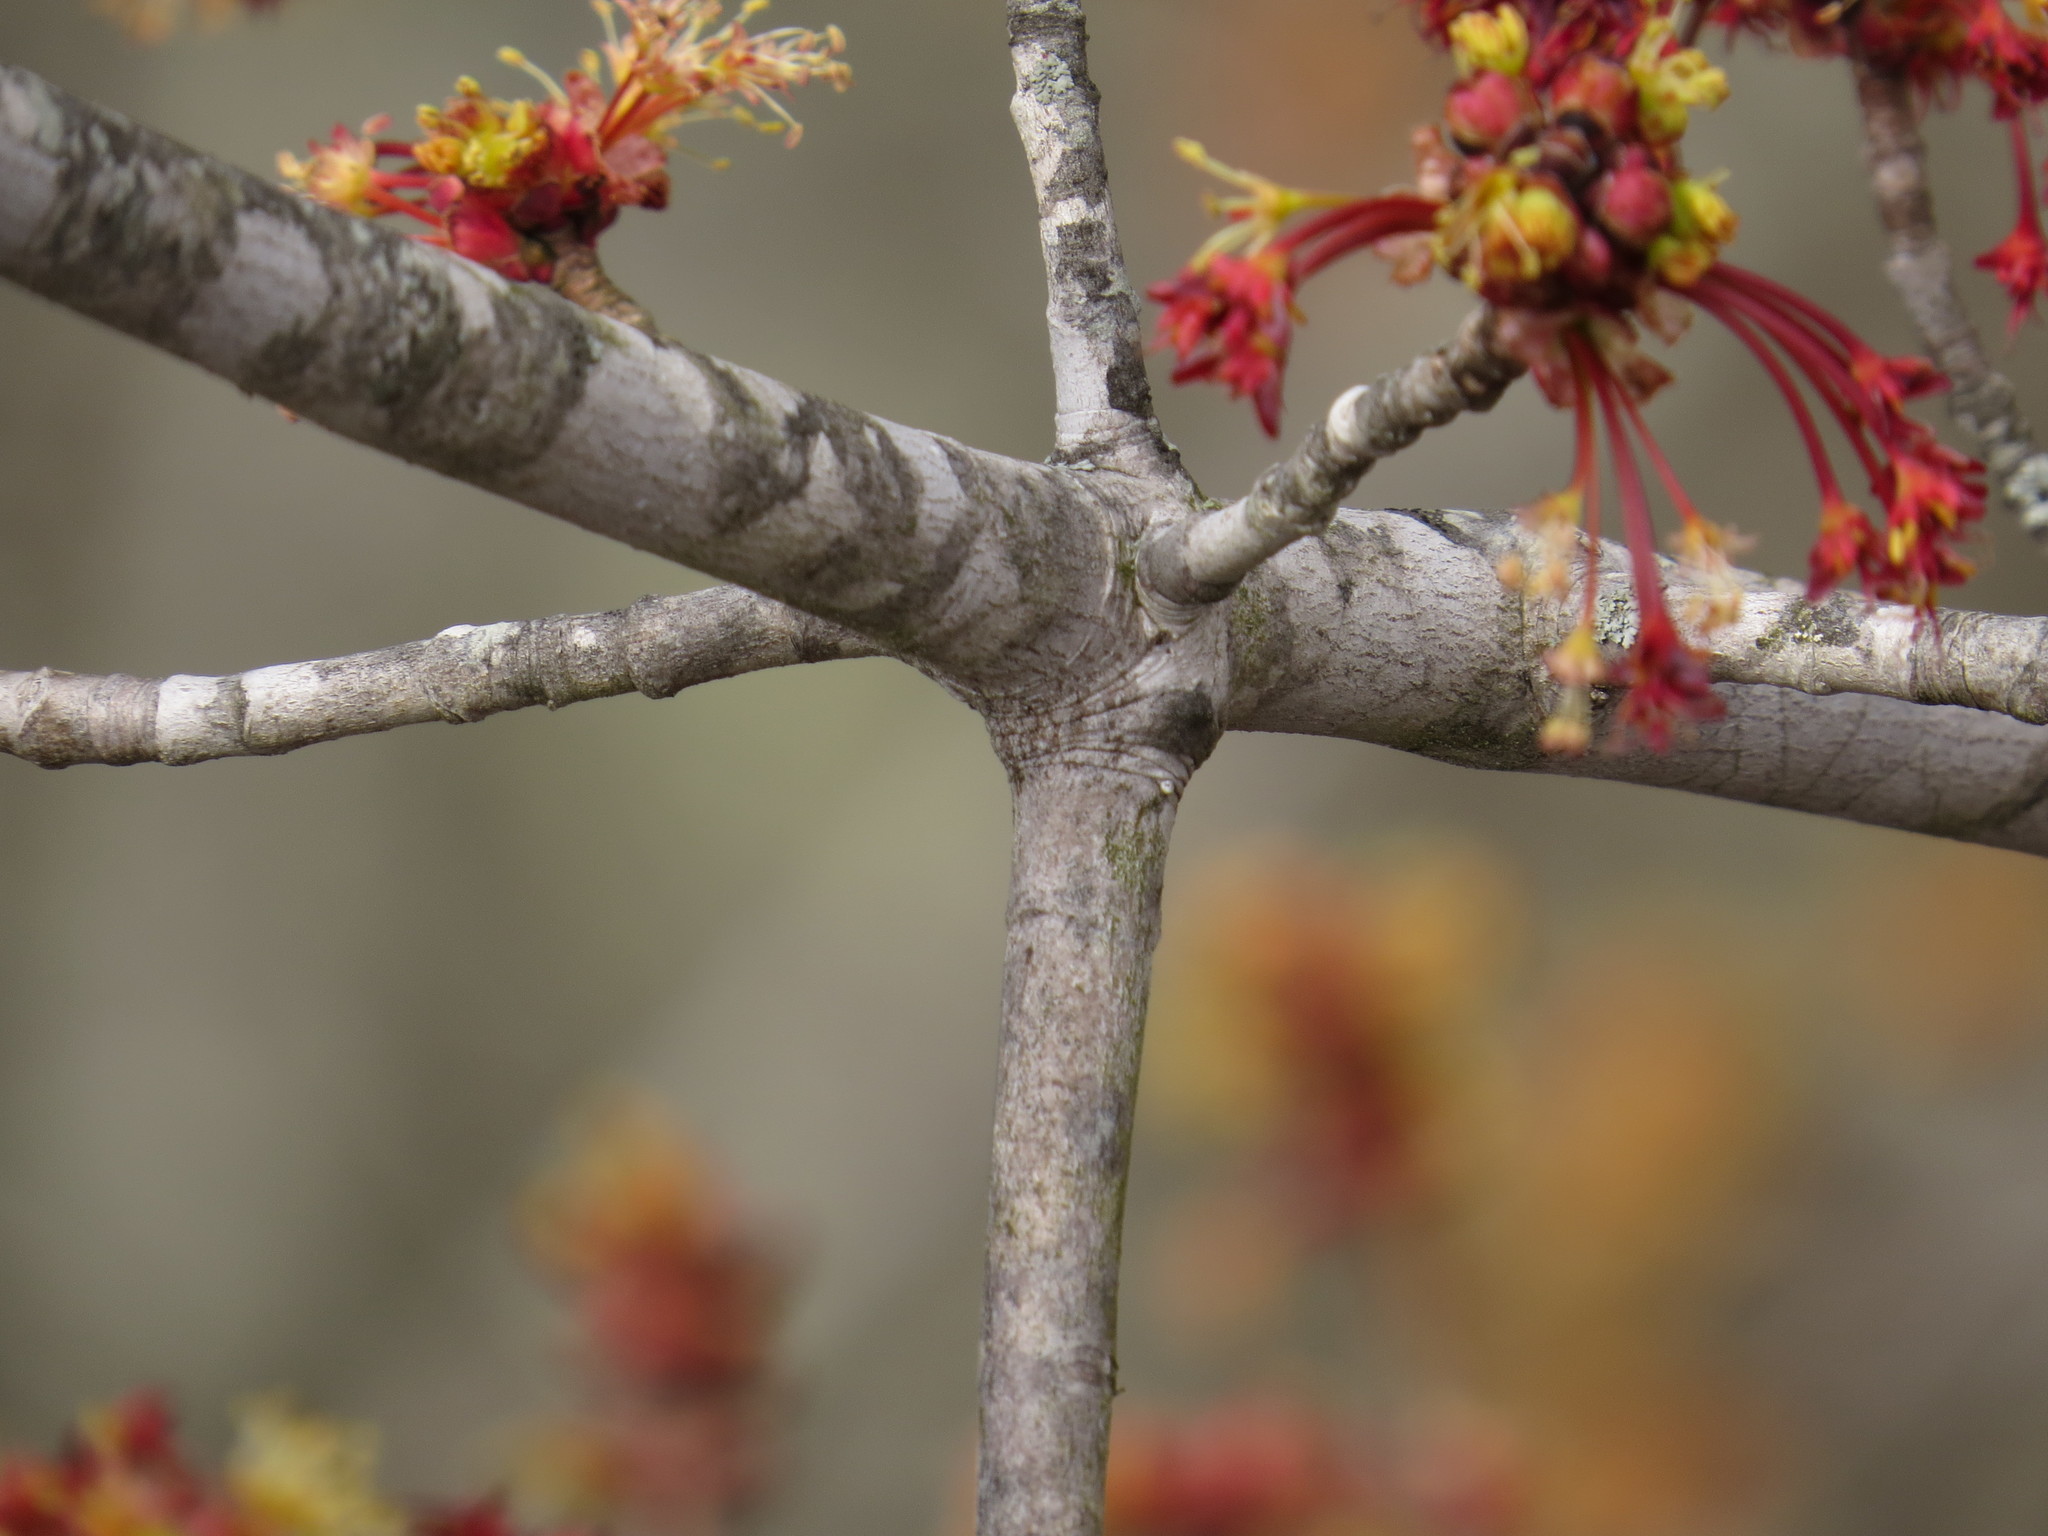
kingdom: Plantae
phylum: Tracheophyta
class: Magnoliopsida
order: Sapindales
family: Sapindaceae
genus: Acer
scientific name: Acer rubrum
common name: Red maple
